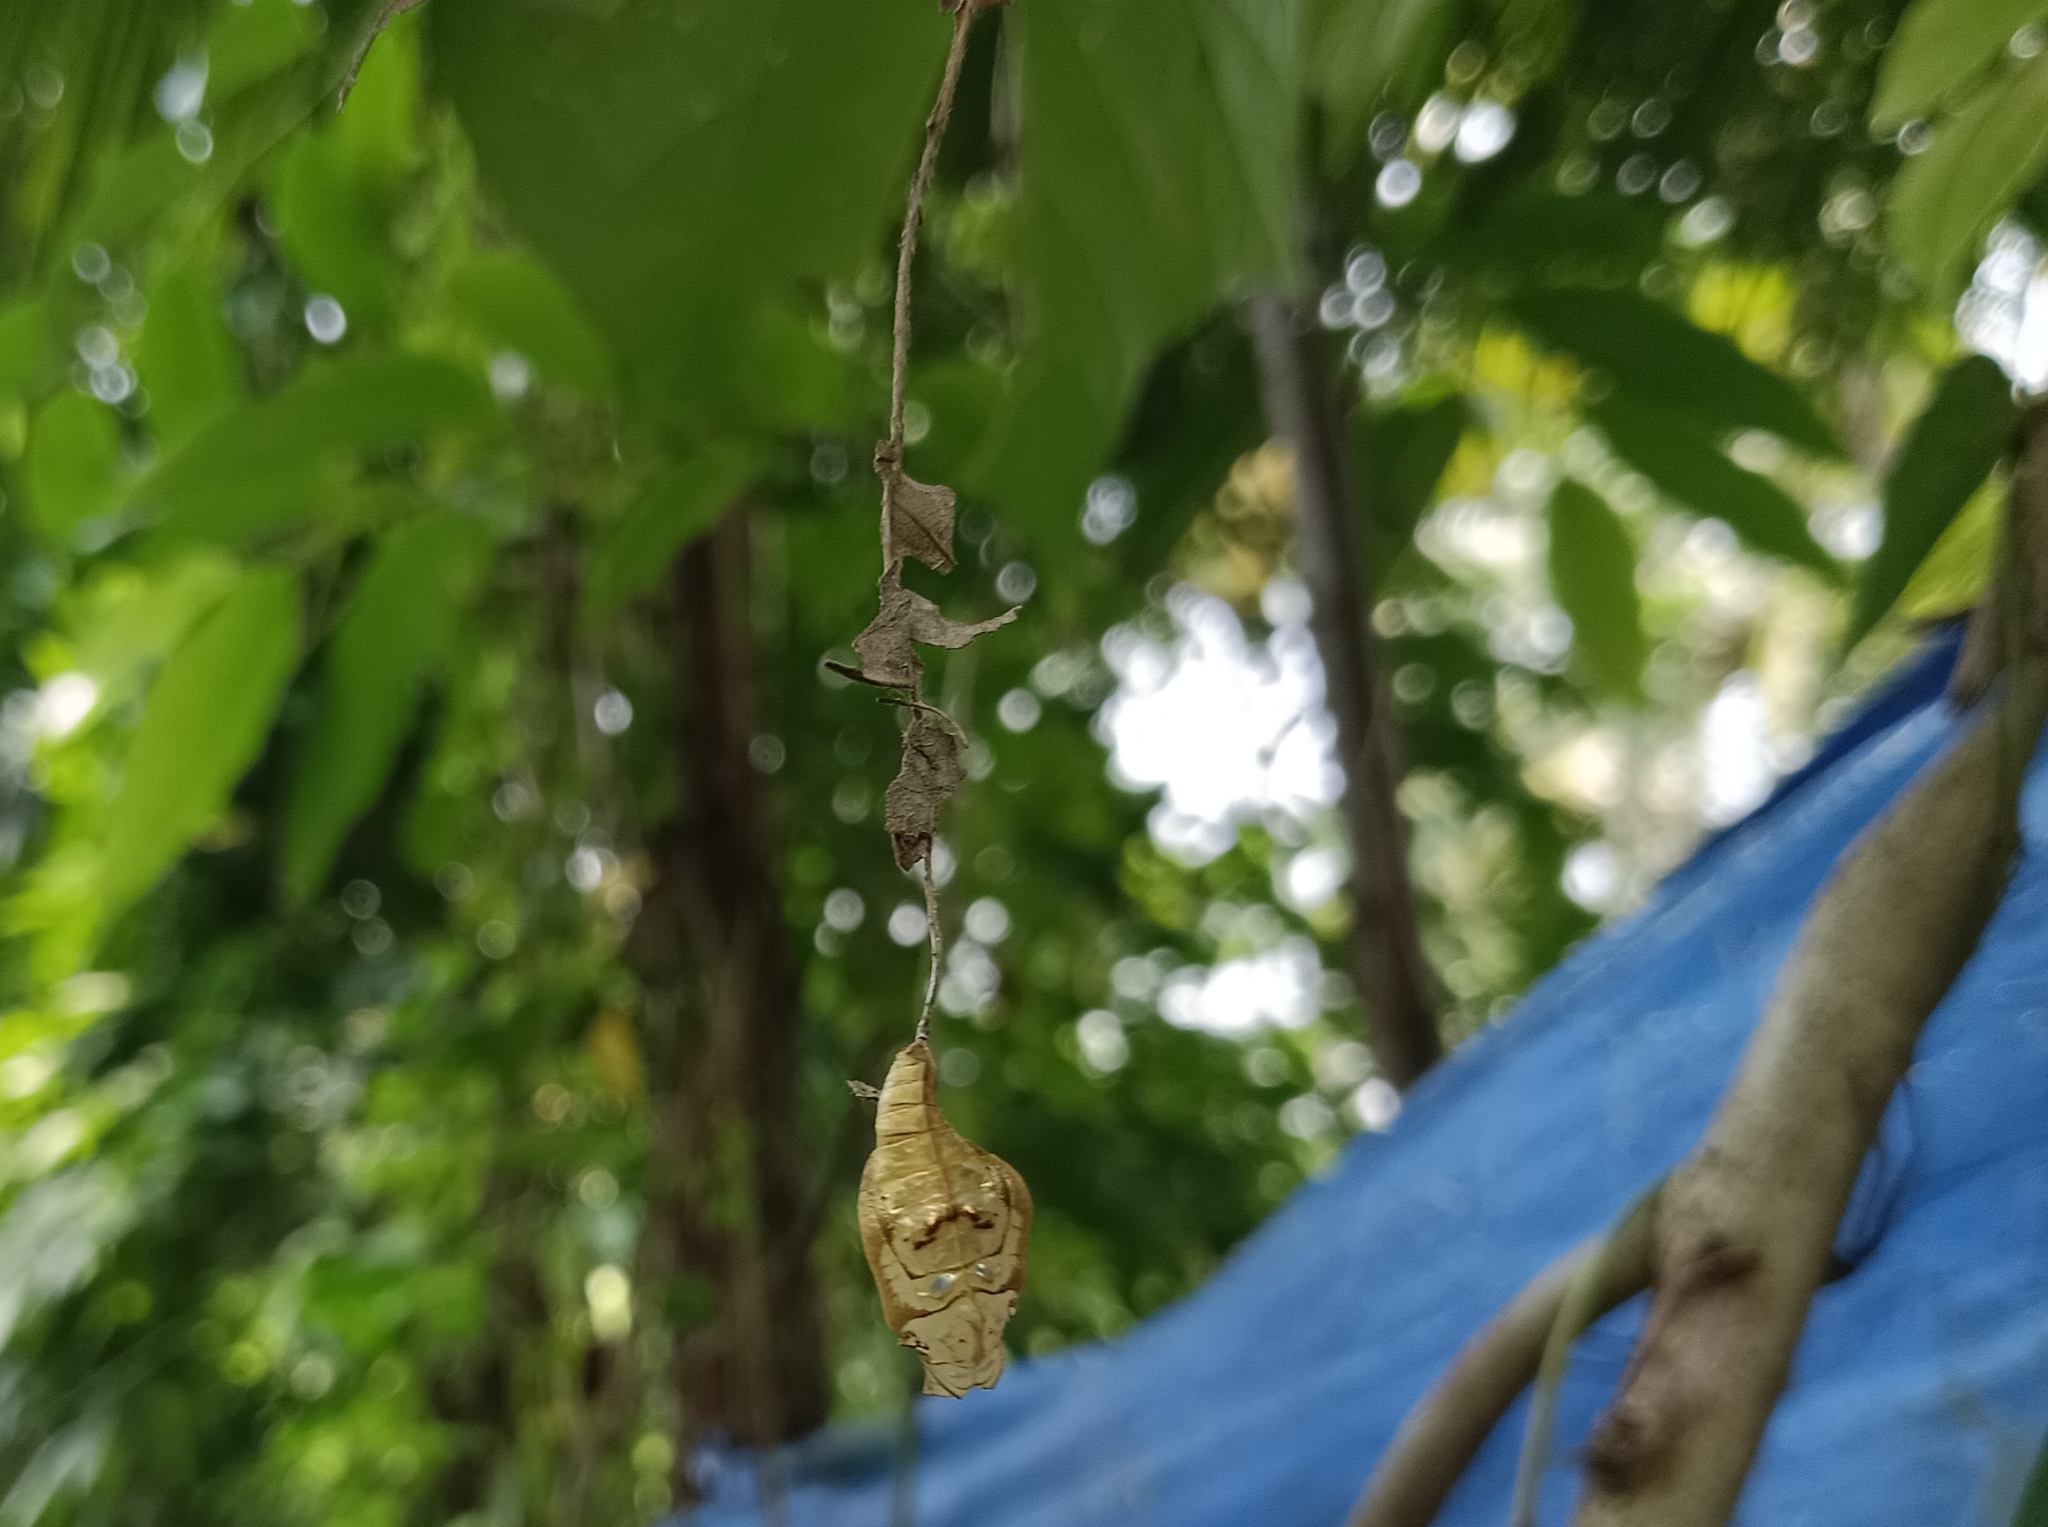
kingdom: Animalia
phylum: Arthropoda
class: Insecta
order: Lepidoptera
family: Nymphalidae
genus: Neptis
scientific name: Neptis jumbah
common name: Chestnut-streaked sailer
